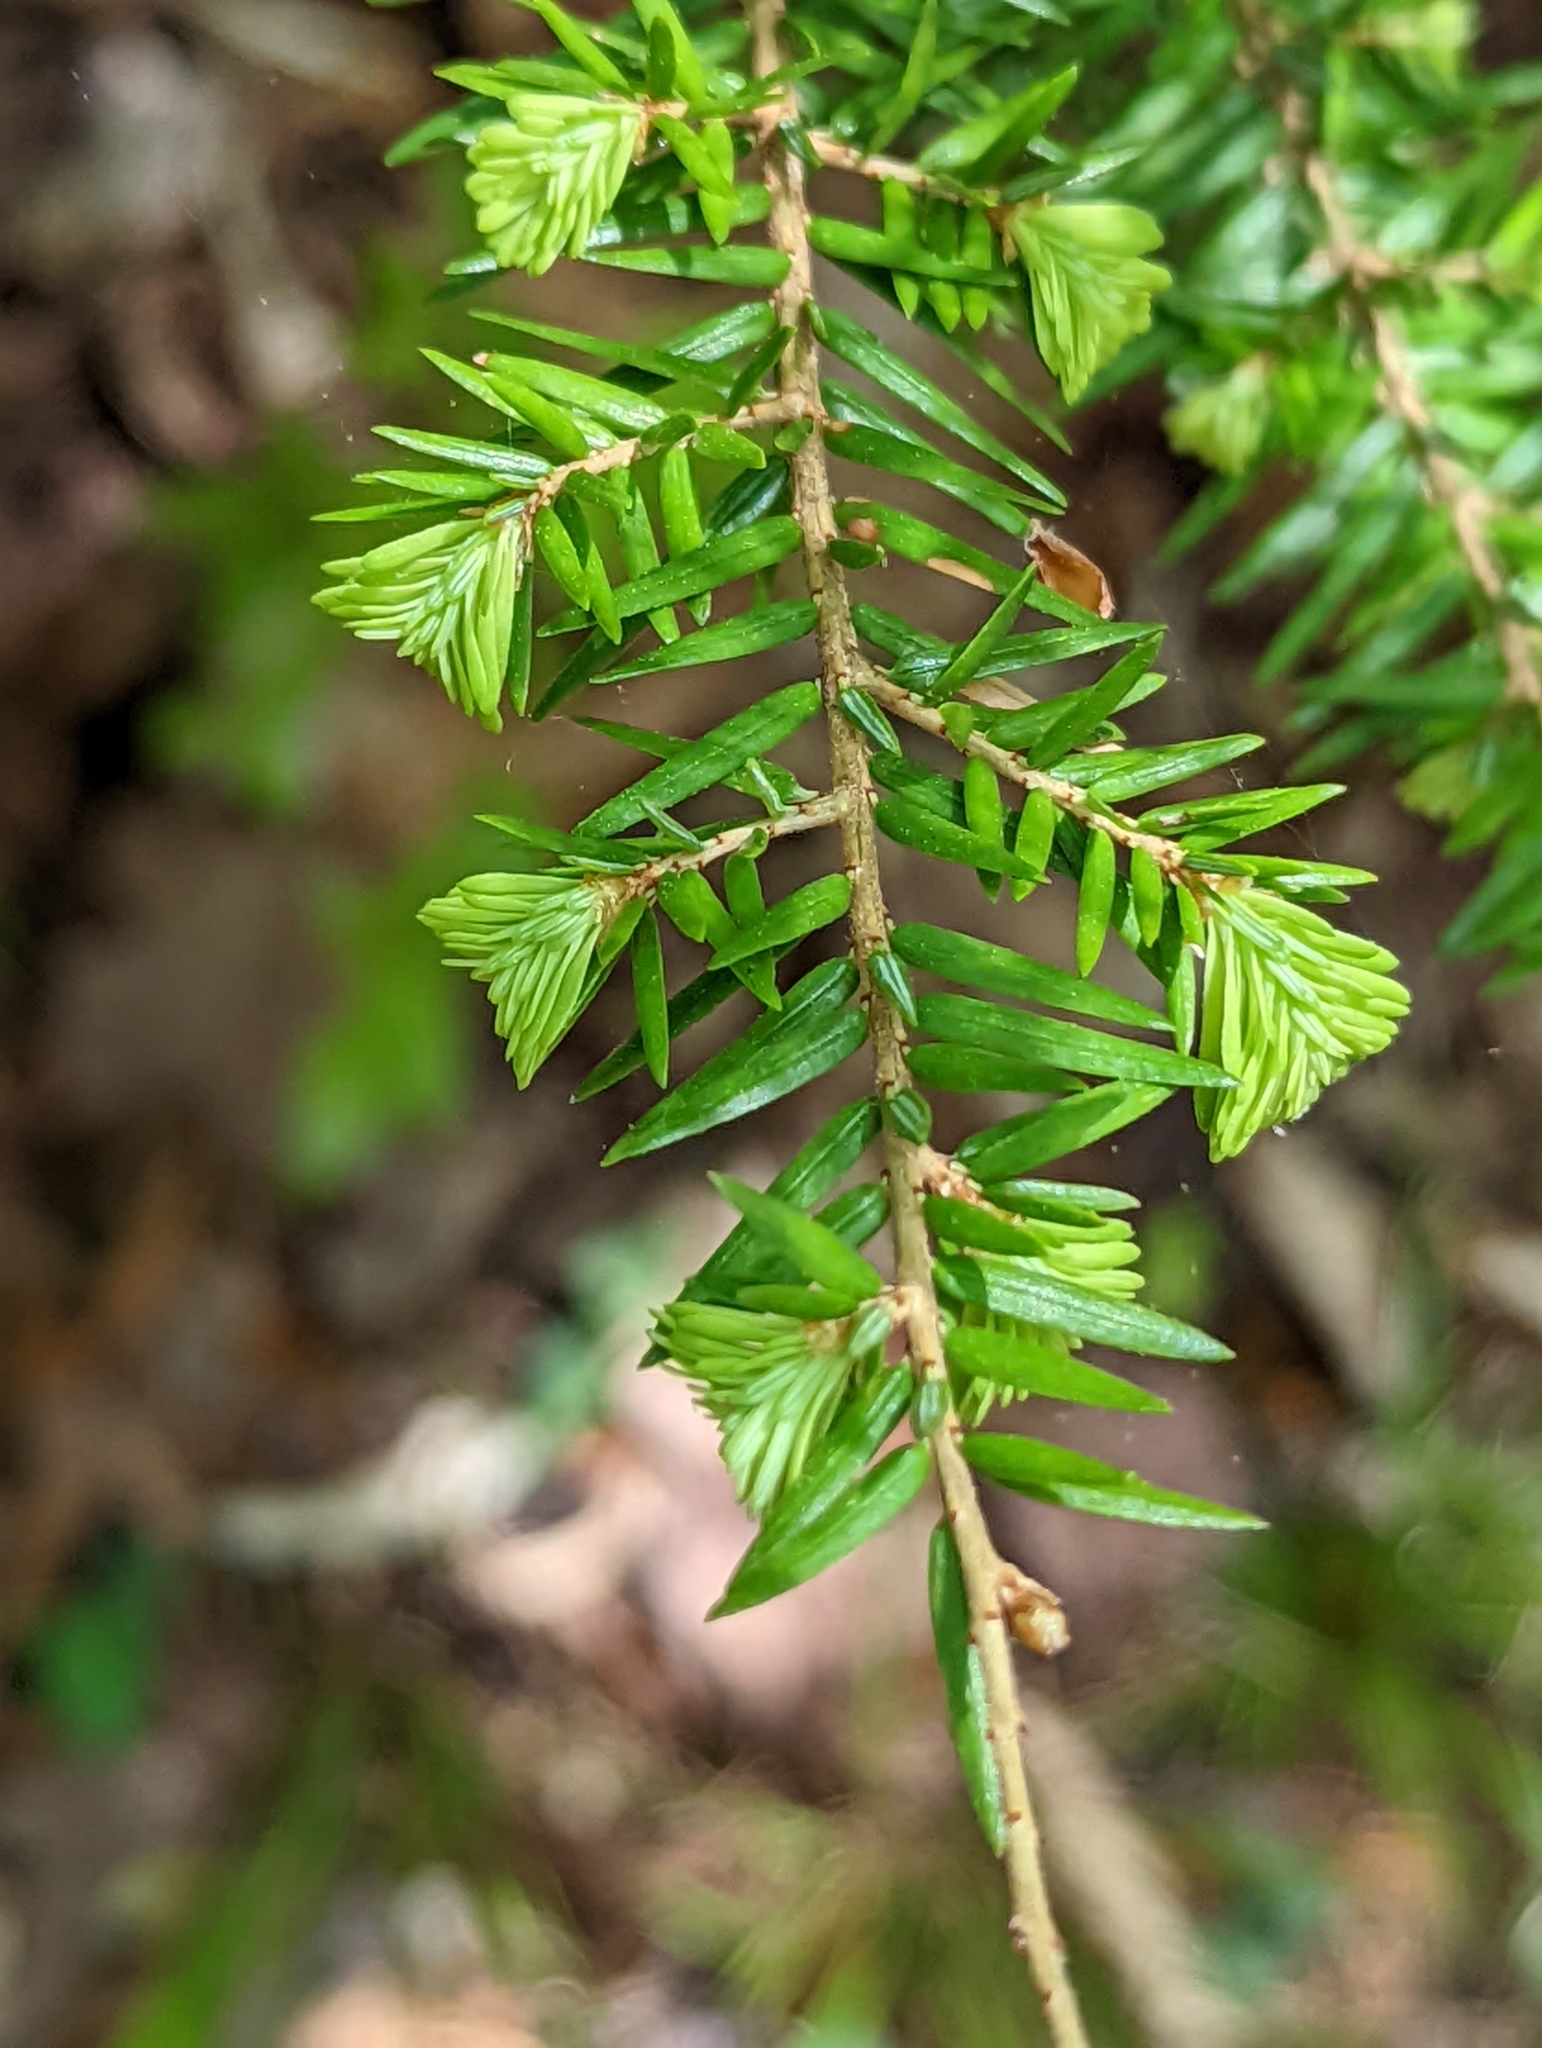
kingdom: Plantae
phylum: Tracheophyta
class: Pinopsida
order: Pinales
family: Pinaceae
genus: Tsuga
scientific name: Tsuga caroliniana
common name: Carolina hemlock
